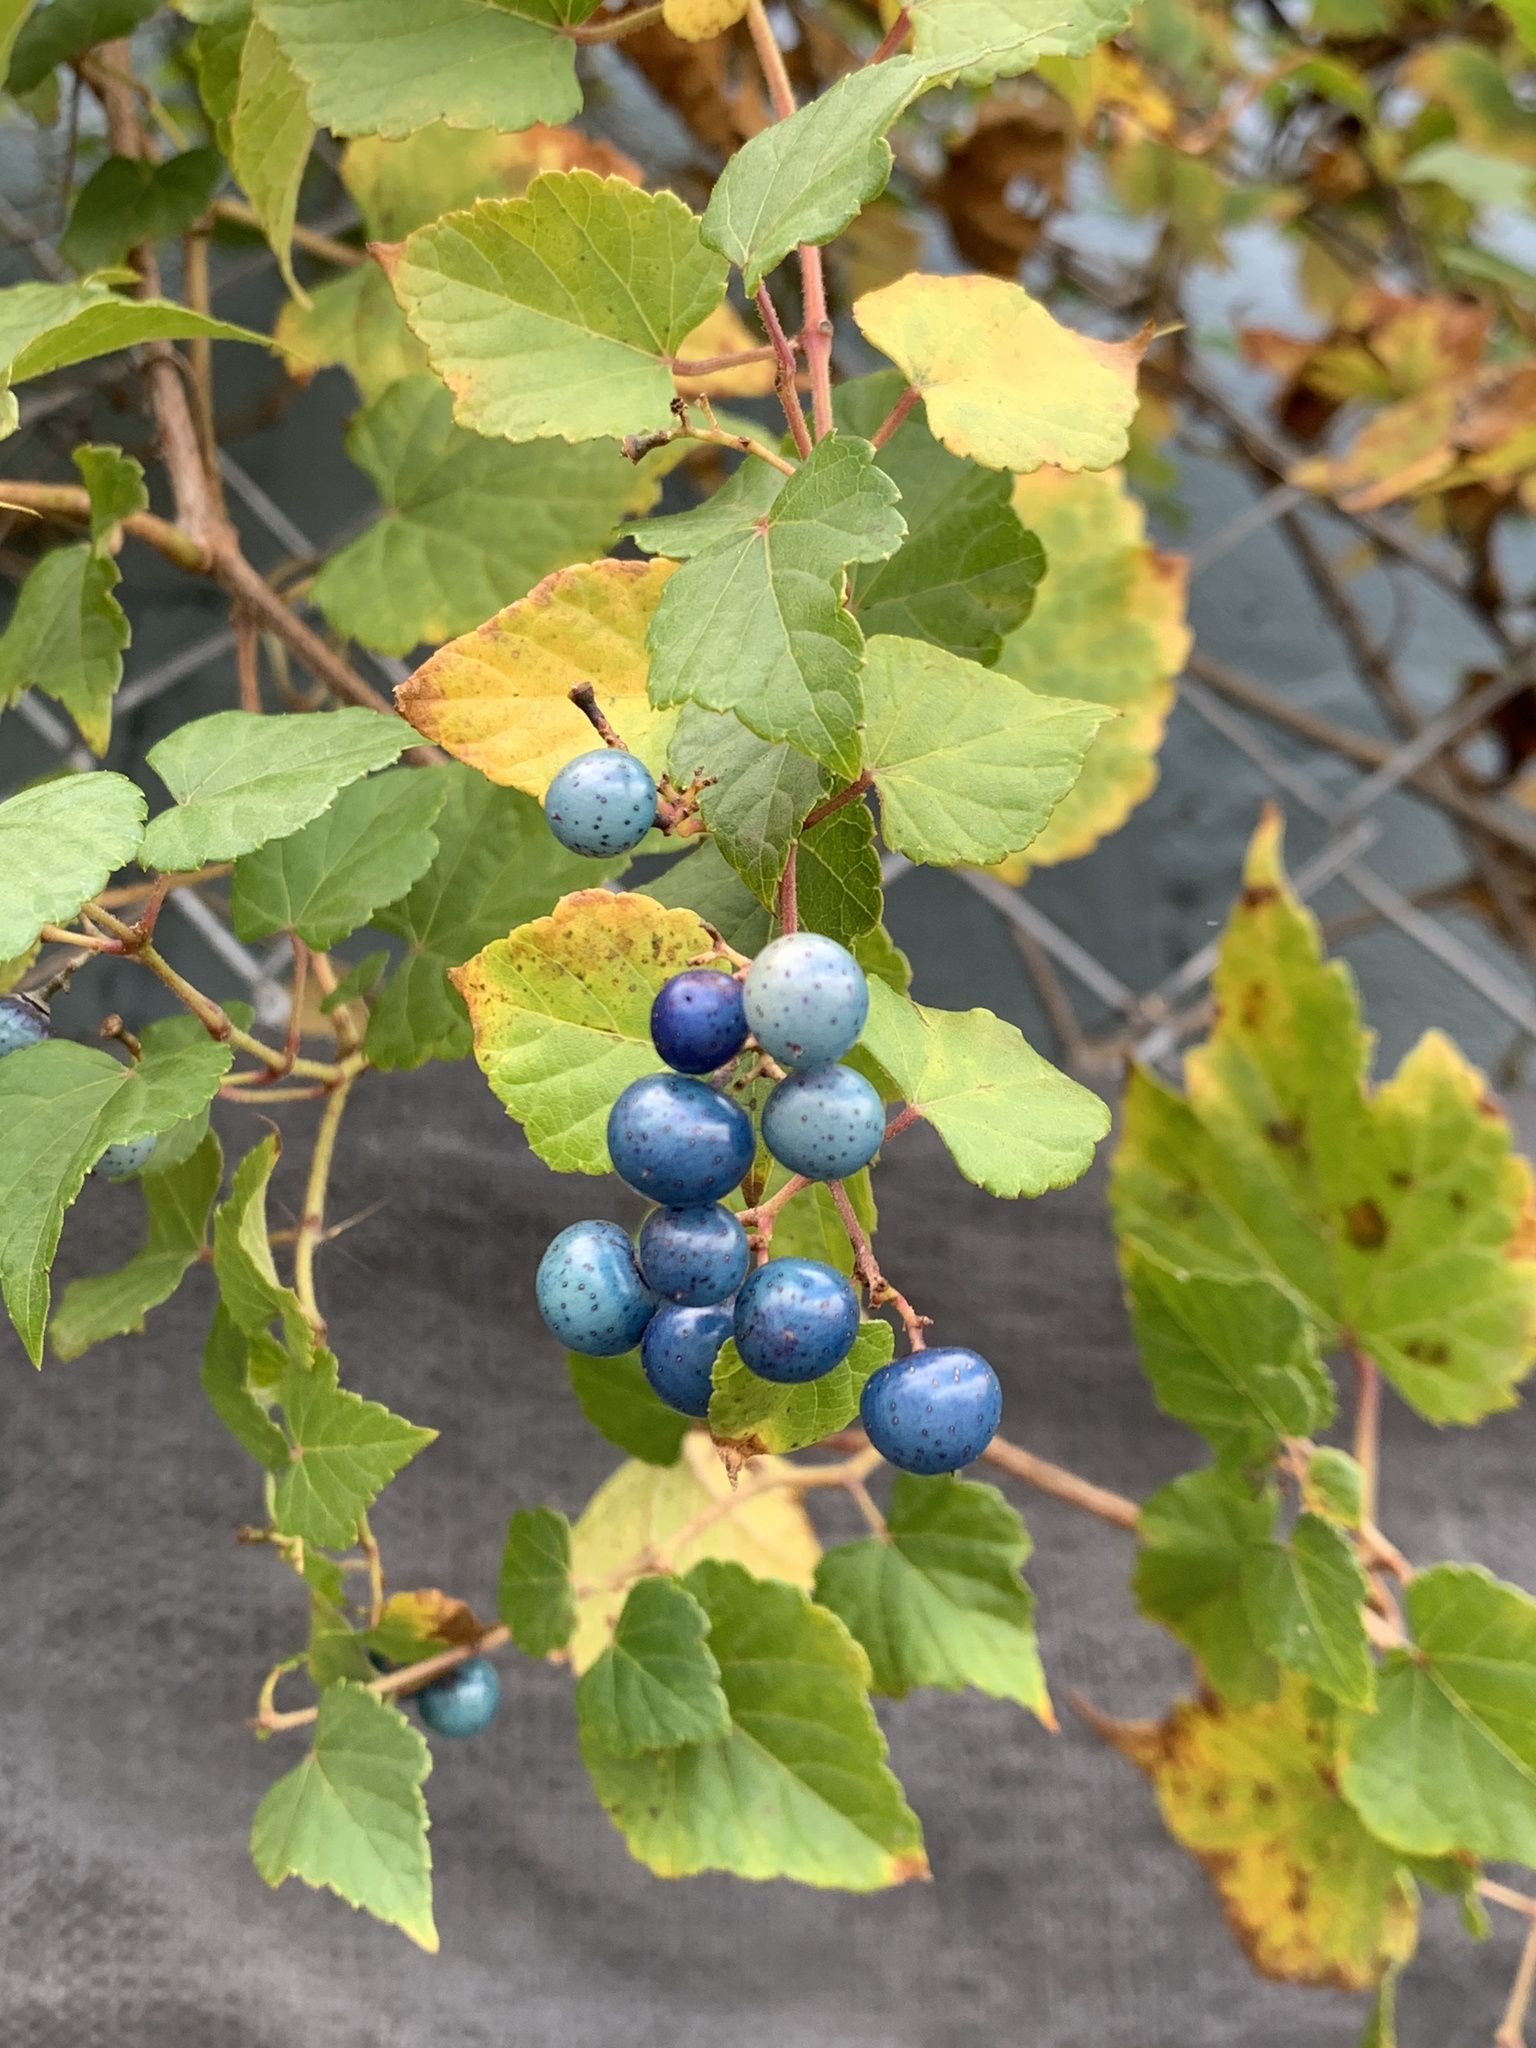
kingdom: Plantae
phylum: Tracheophyta
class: Magnoliopsida
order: Vitales
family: Vitaceae
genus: Ampelopsis
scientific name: Ampelopsis glandulosa
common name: Amur peppervine
